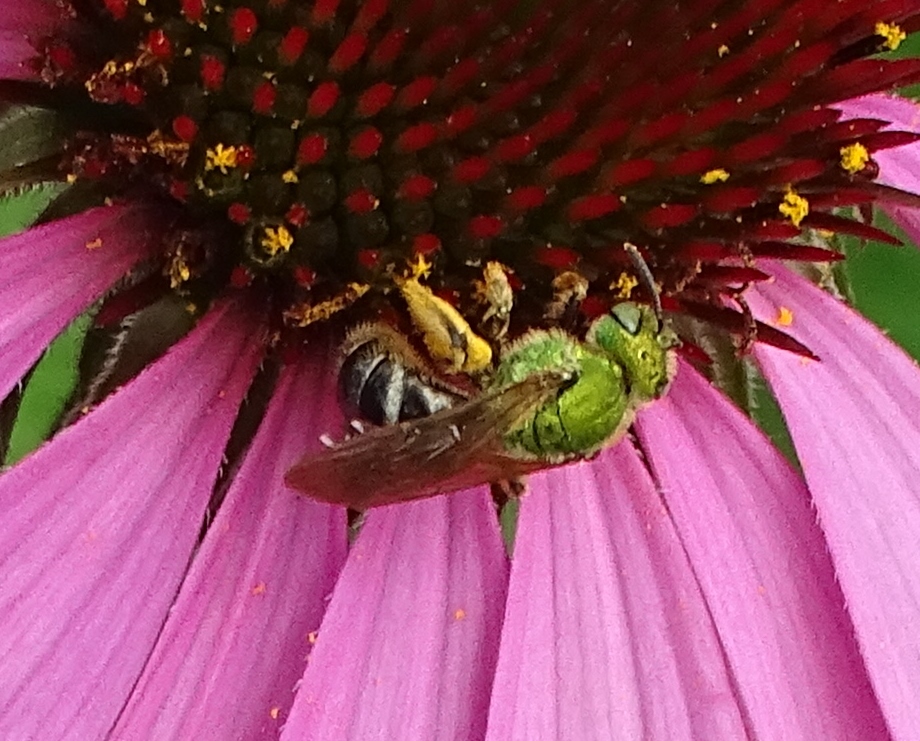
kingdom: Animalia
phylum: Arthropoda
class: Insecta
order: Hymenoptera
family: Halictidae
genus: Agapostemon
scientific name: Agapostemon virescens
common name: Bicolored striped sweat bee
